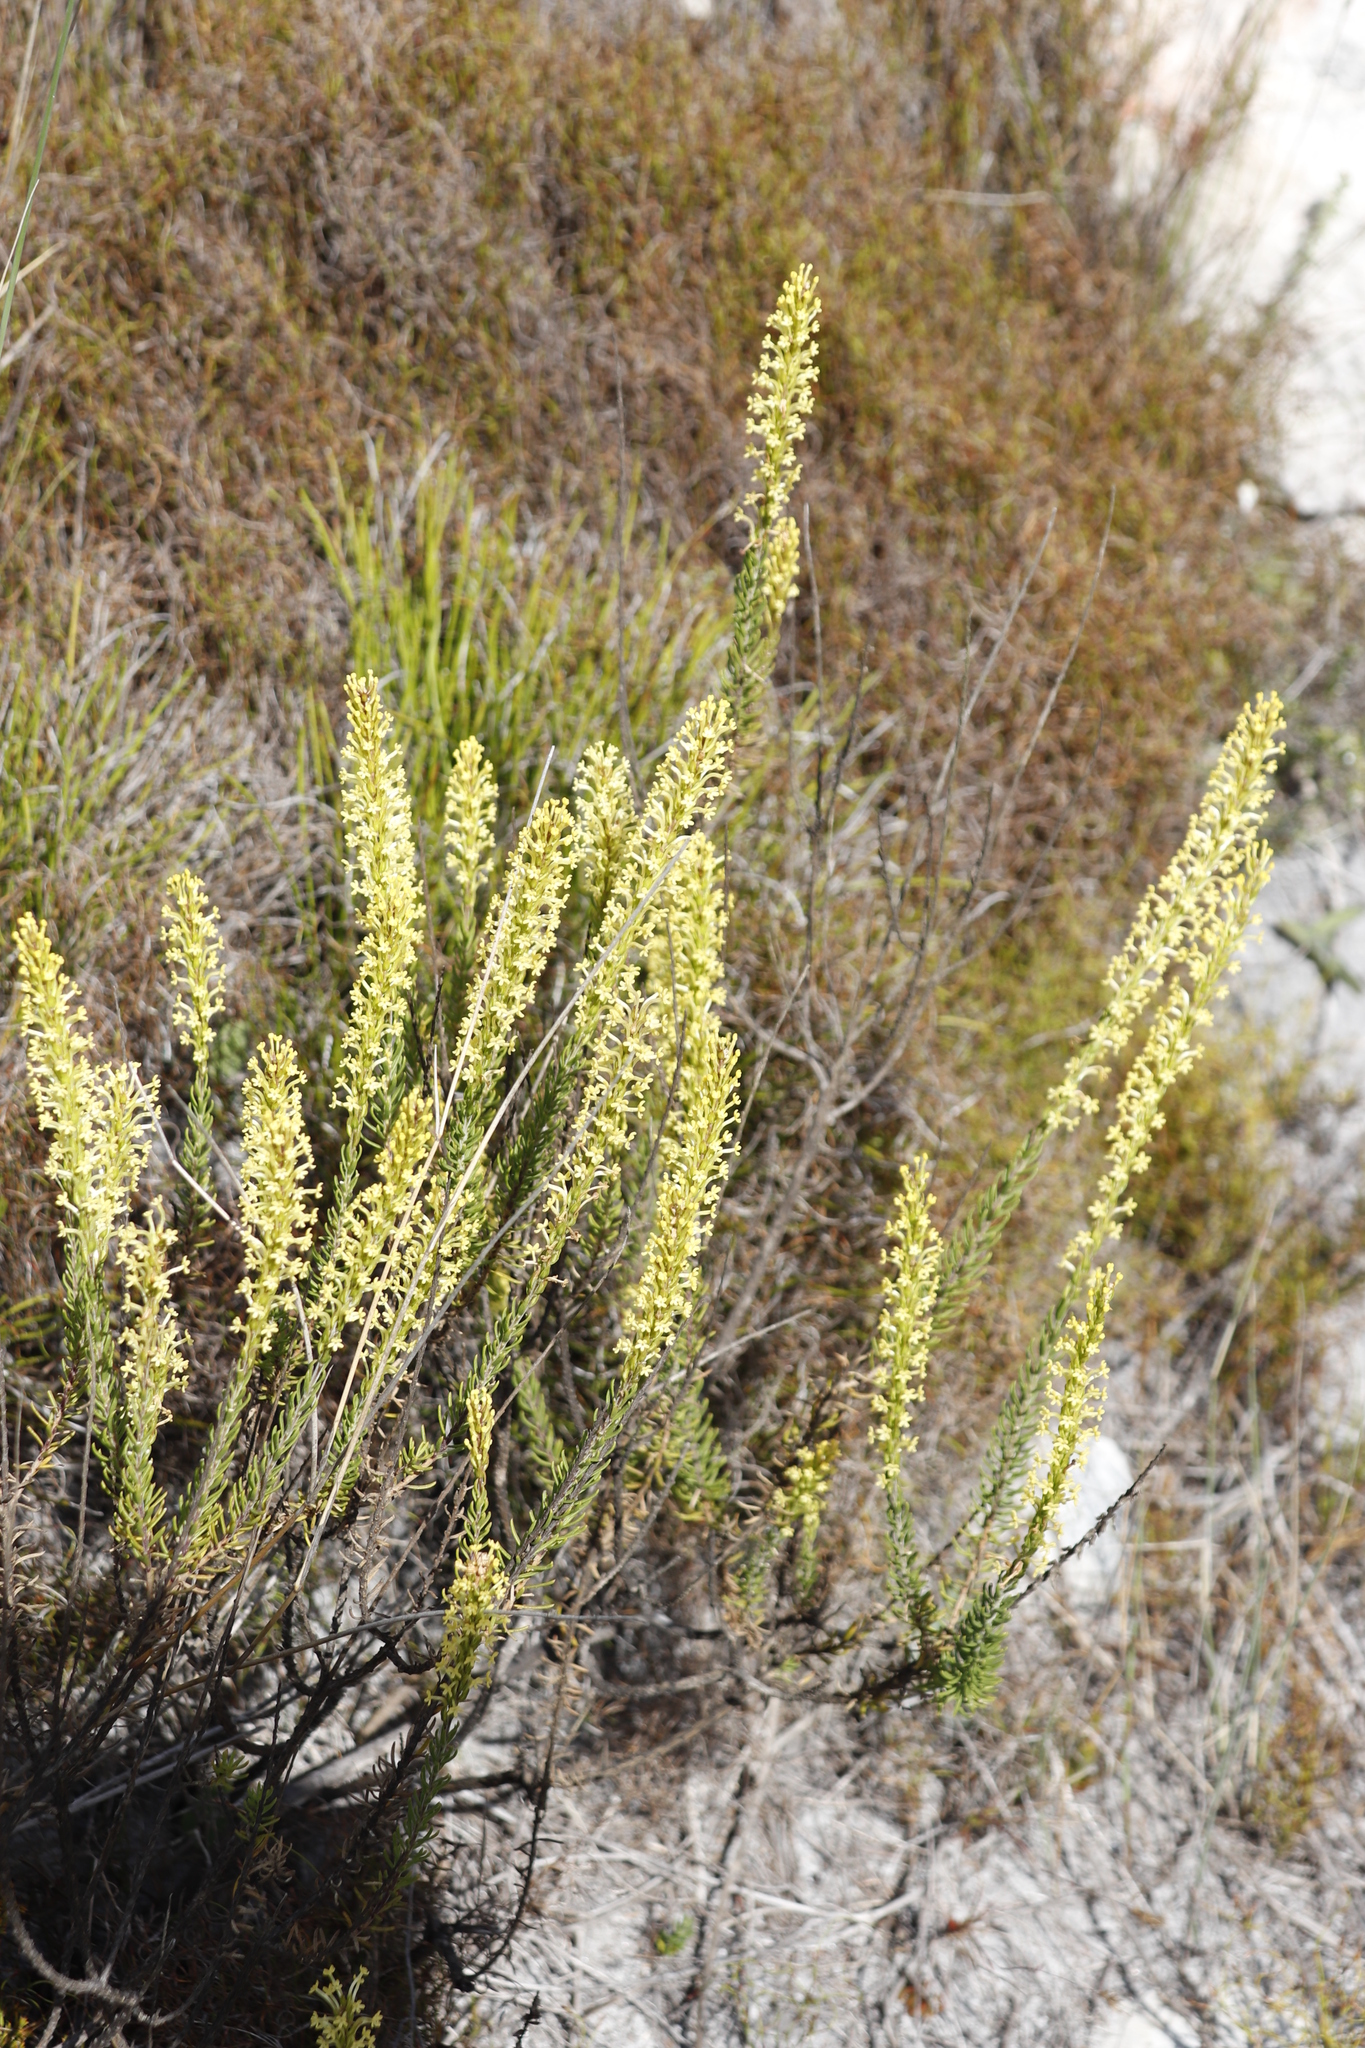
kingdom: Plantae
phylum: Tracheophyta
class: Magnoliopsida
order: Lamiales
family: Scrophulariaceae
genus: Microdon
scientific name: Microdon dubius
